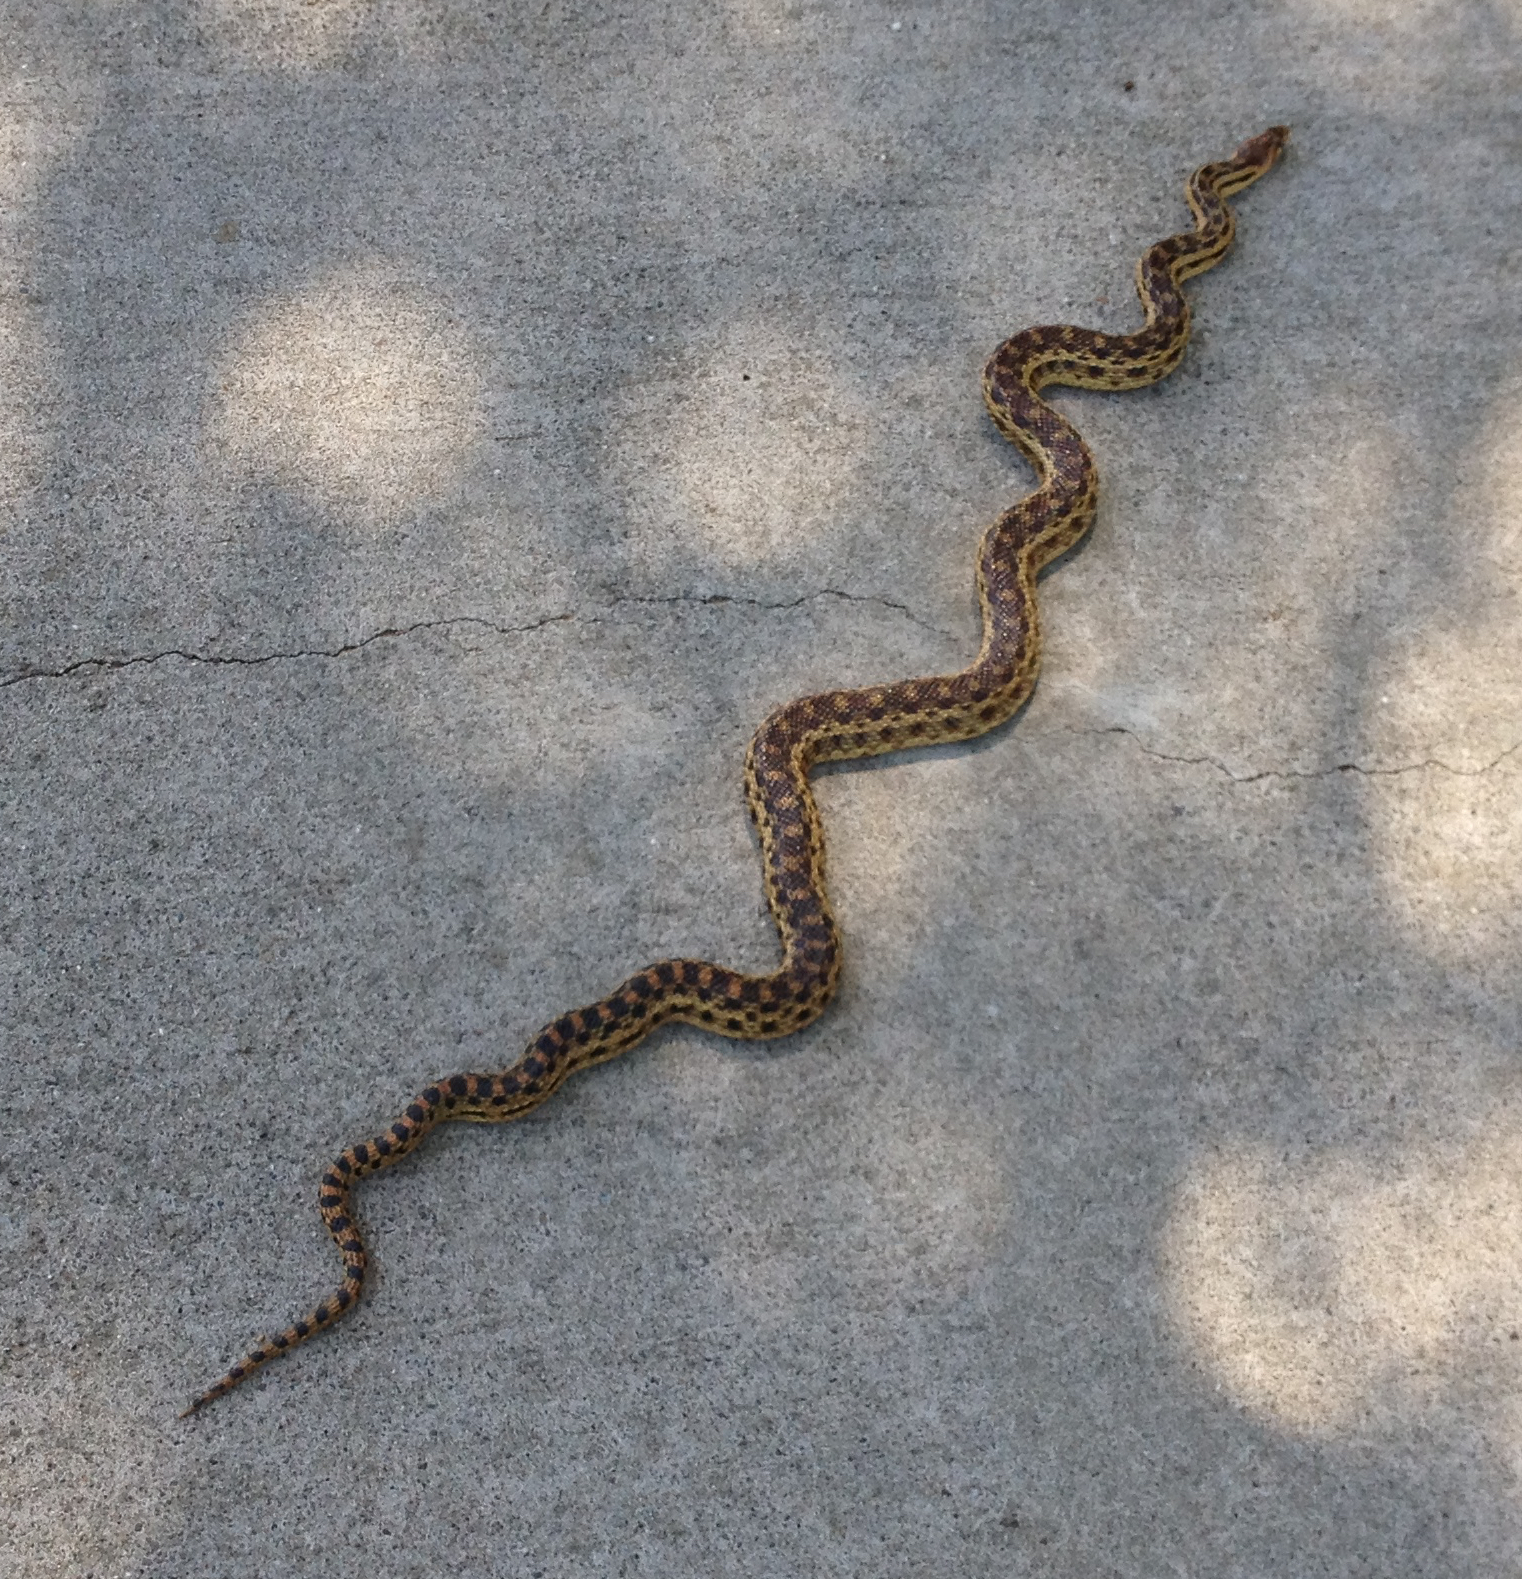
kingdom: Animalia
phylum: Chordata
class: Squamata
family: Colubridae
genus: Pituophis
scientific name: Pituophis catenifer
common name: Gopher snake
